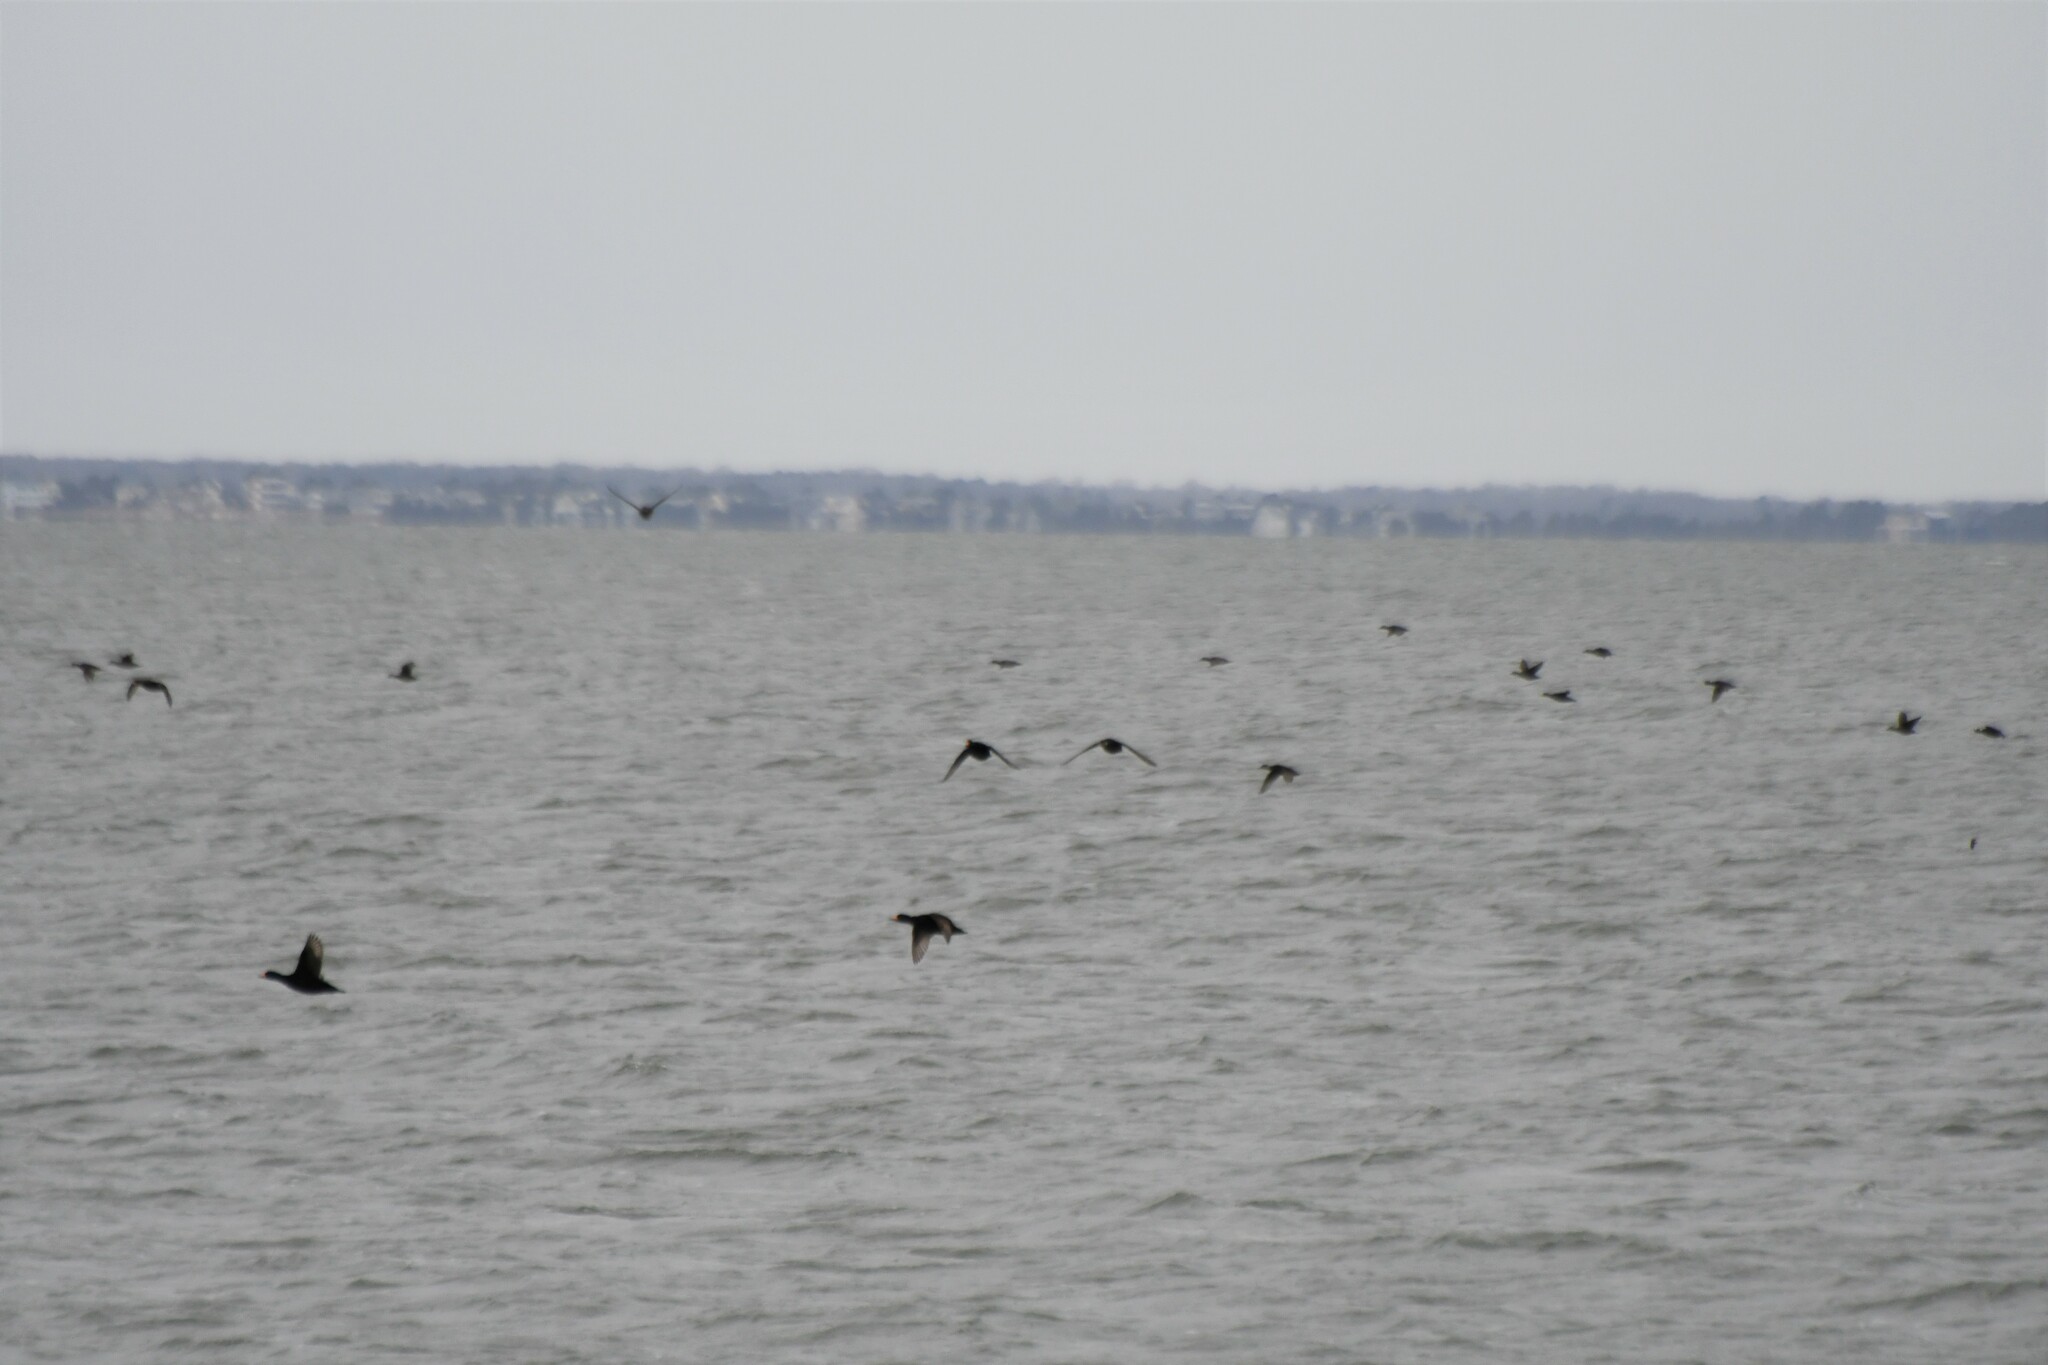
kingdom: Animalia
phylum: Chordata
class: Aves
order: Anseriformes
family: Anatidae
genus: Melanitta
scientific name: Melanitta americana
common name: Black scoter
